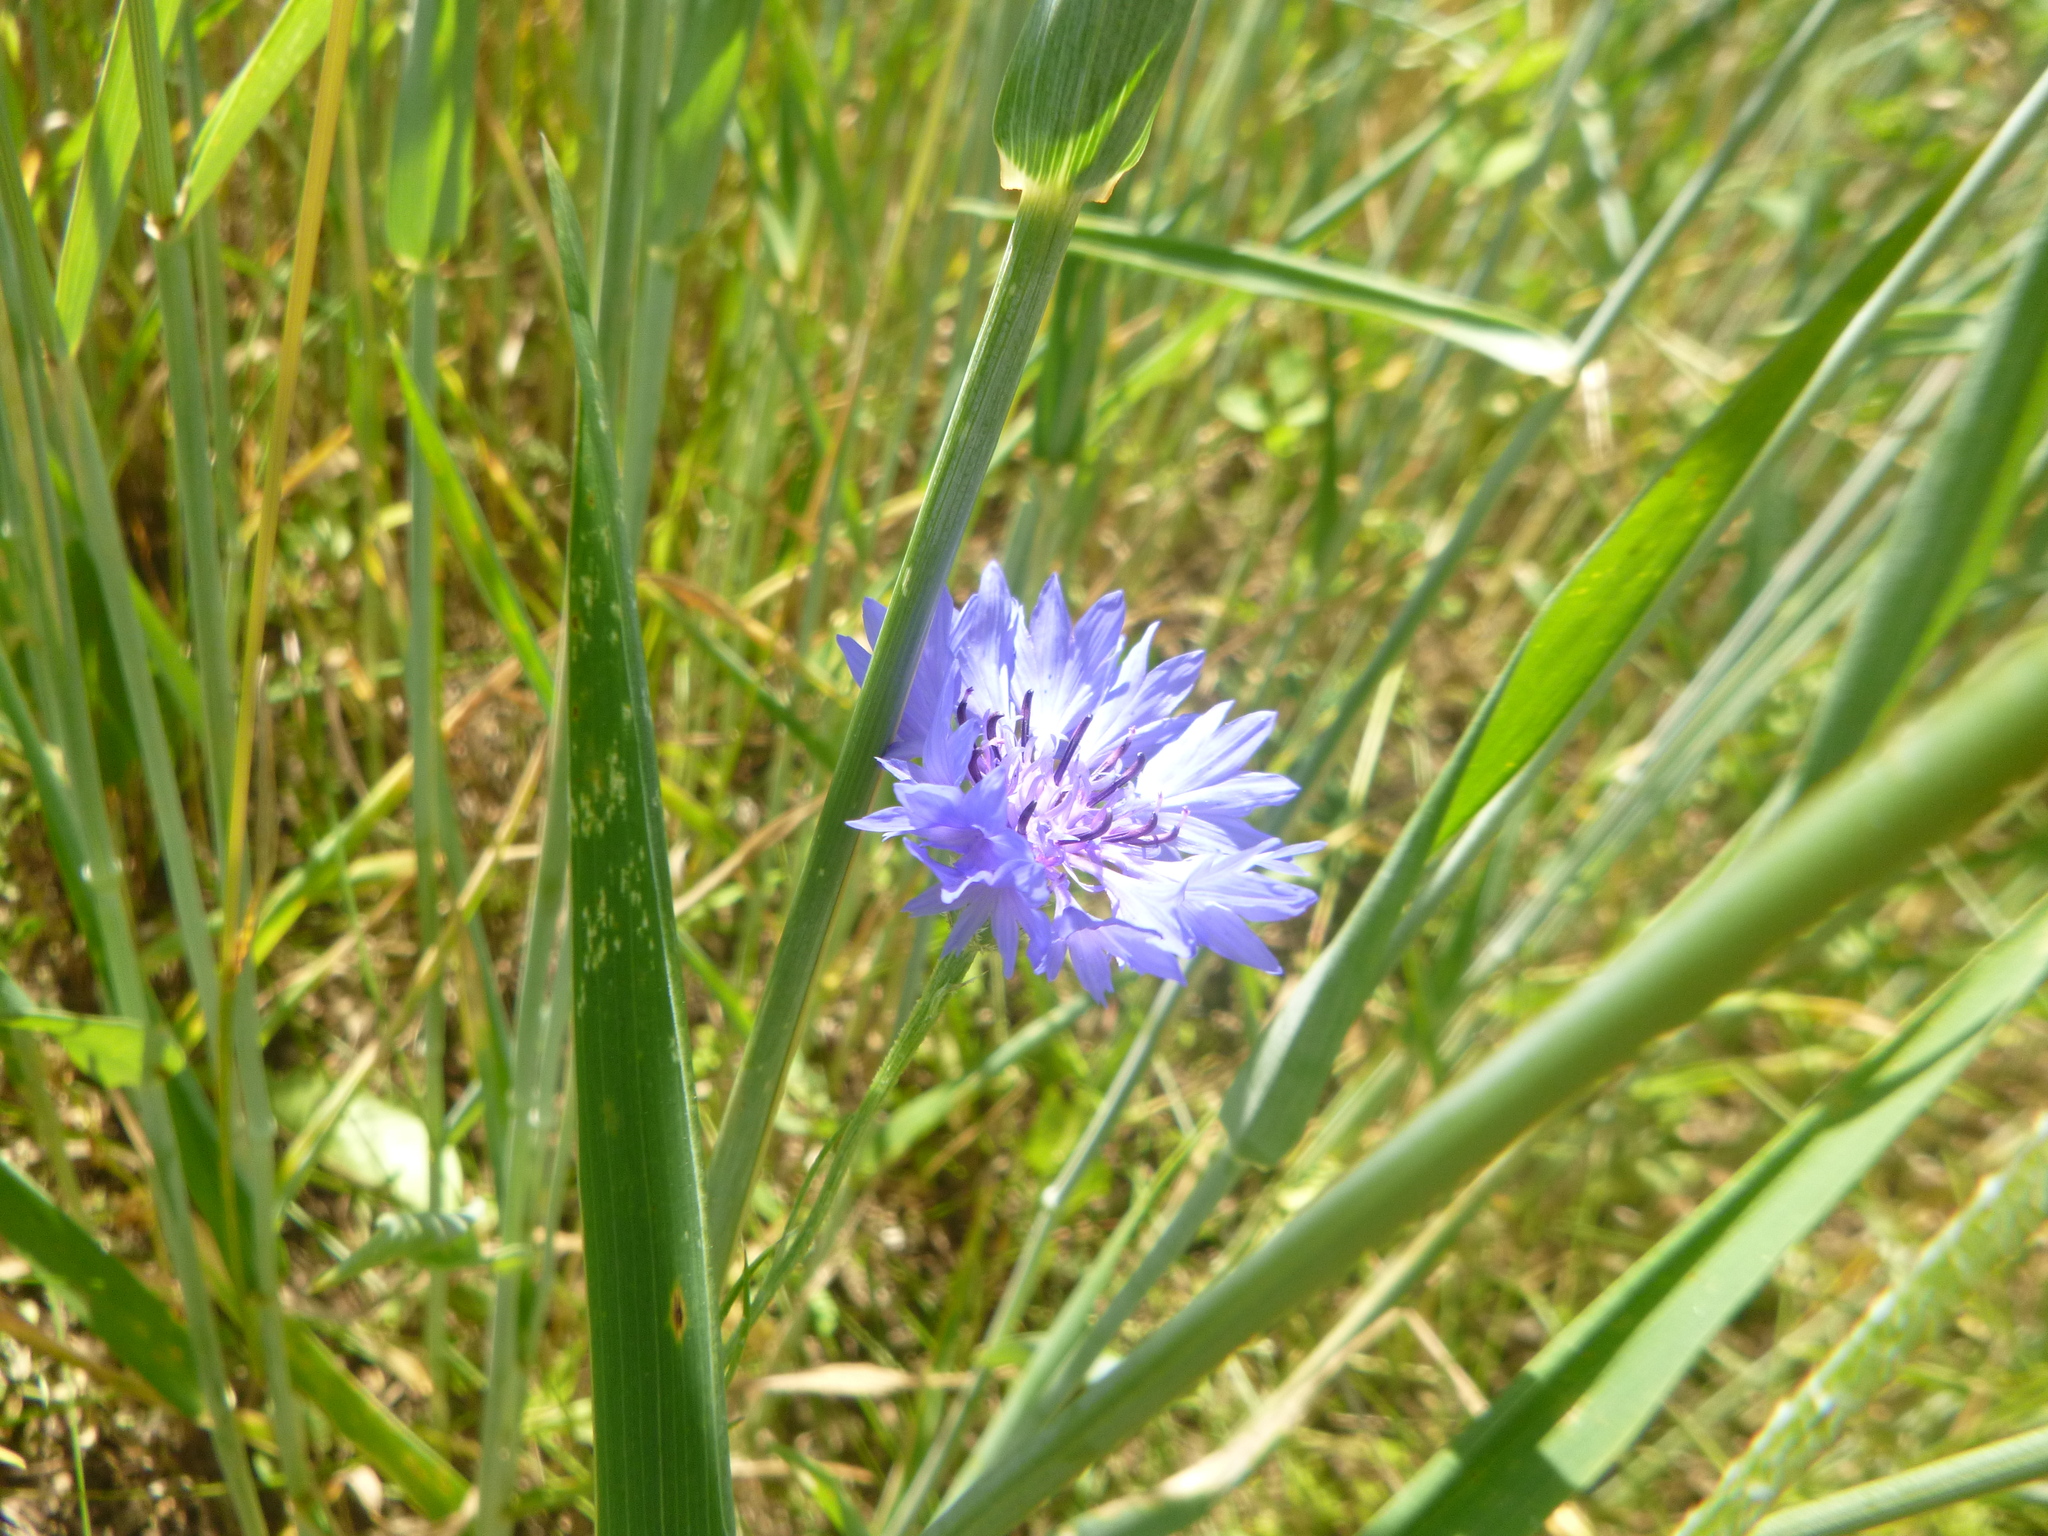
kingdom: Plantae
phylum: Tracheophyta
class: Magnoliopsida
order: Asterales
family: Asteraceae
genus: Centaurea
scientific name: Centaurea cyanus
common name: Cornflower
